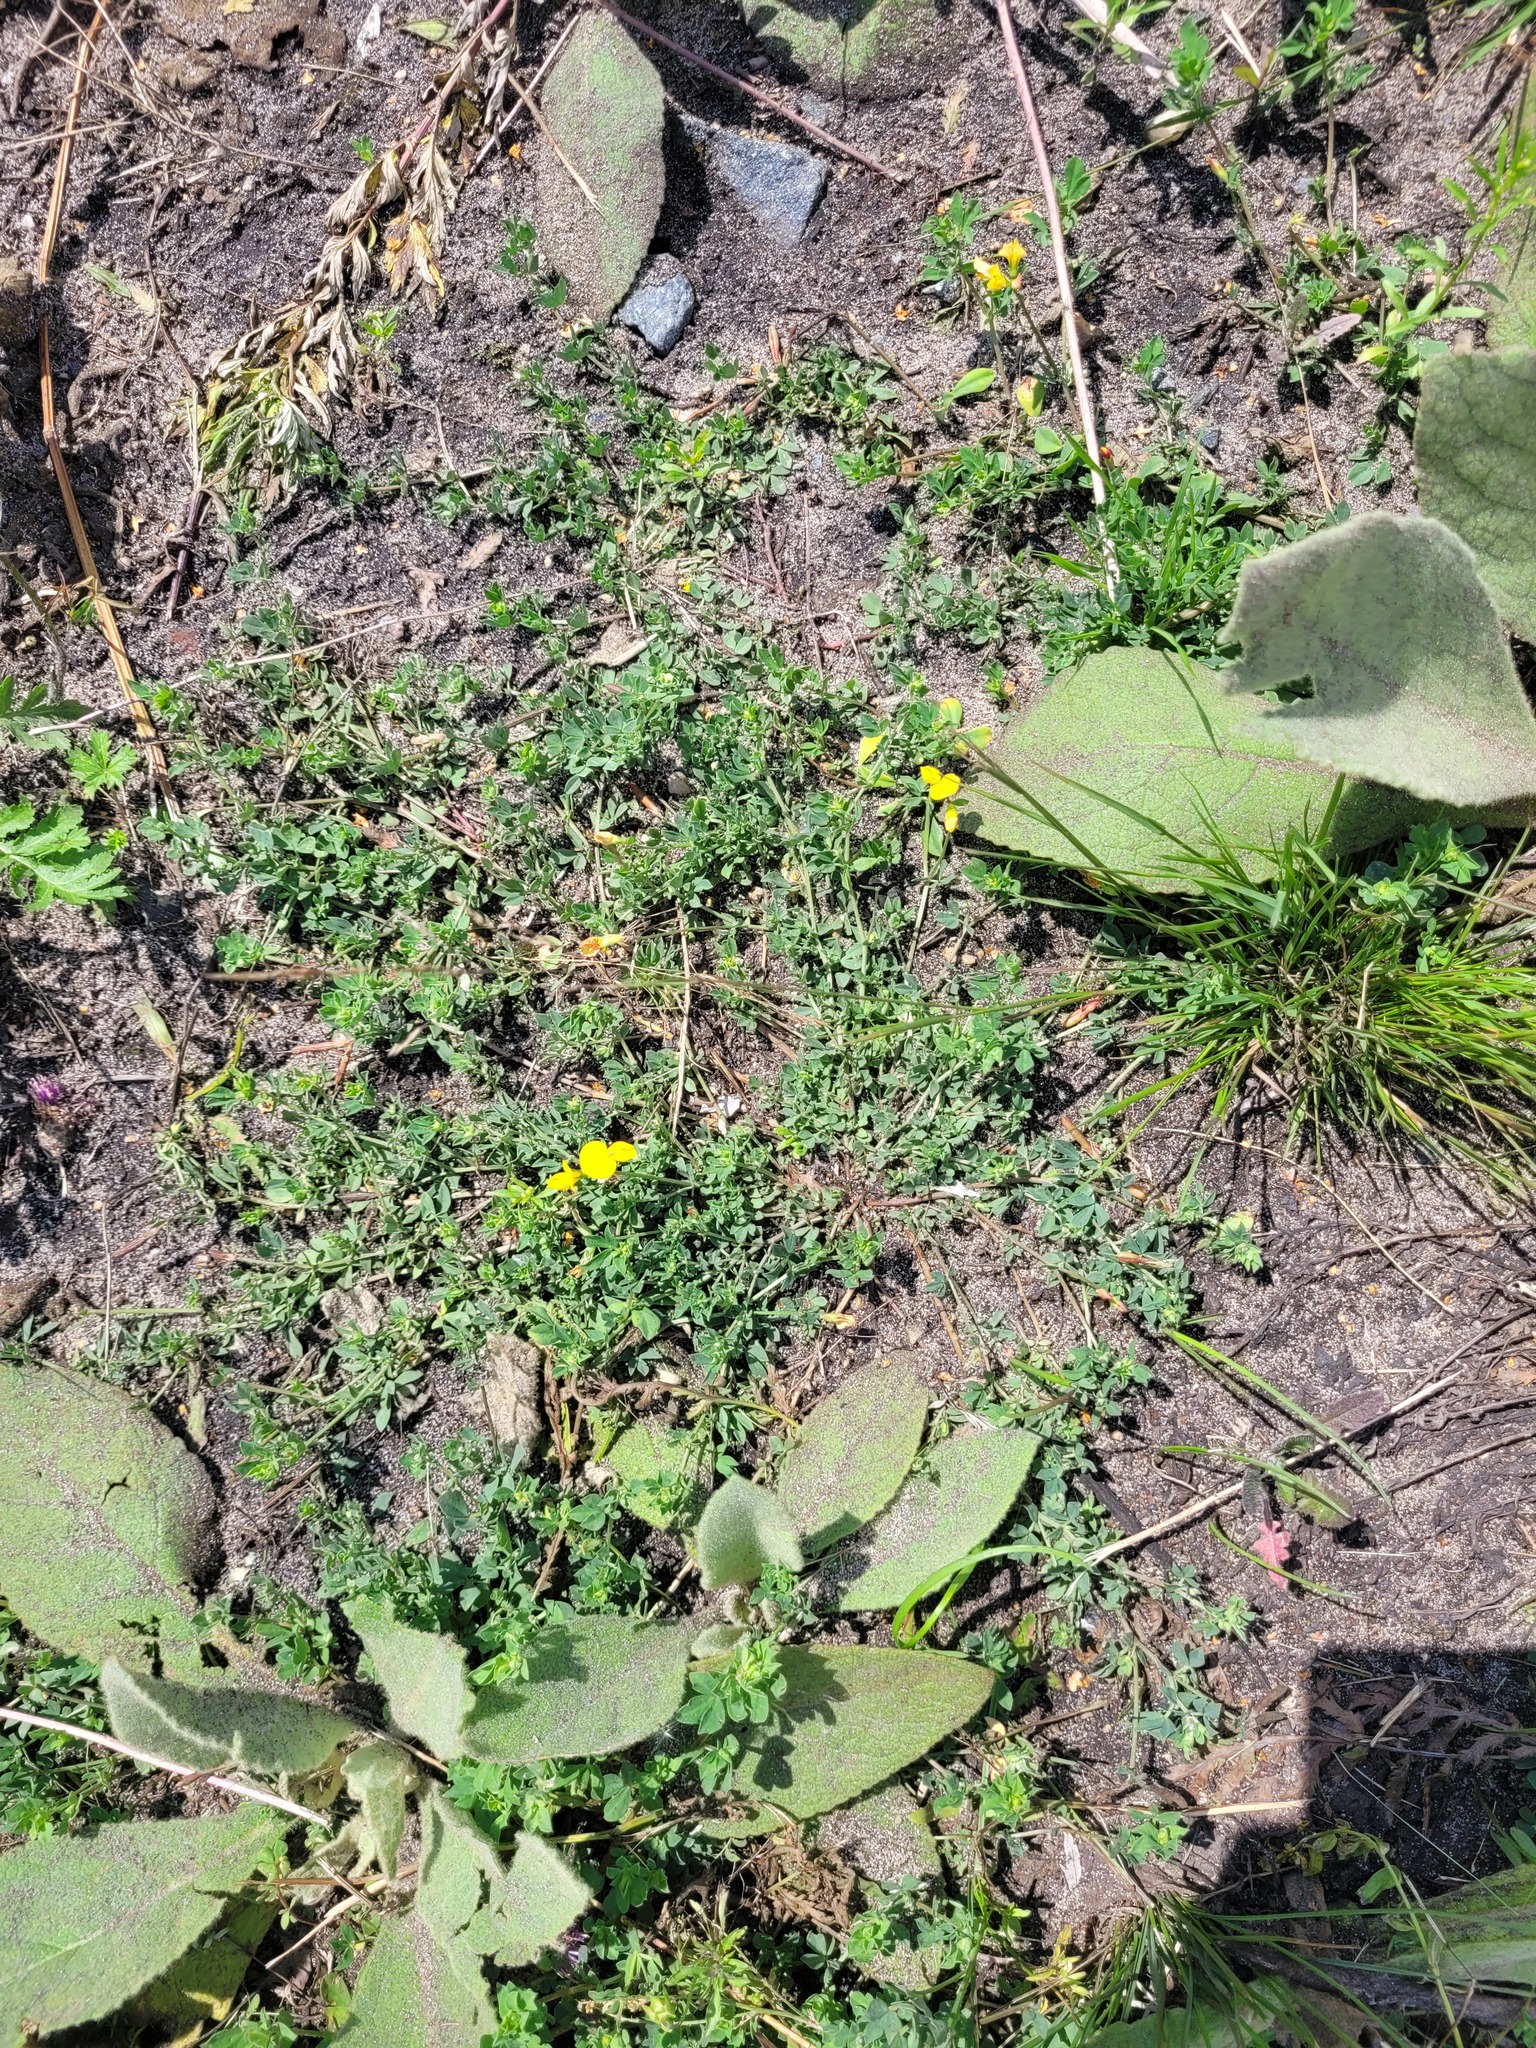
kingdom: Plantae
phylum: Tracheophyta
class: Magnoliopsida
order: Fabales
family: Fabaceae
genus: Lotus
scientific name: Lotus corniculatus
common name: Common bird's-foot-trefoil
